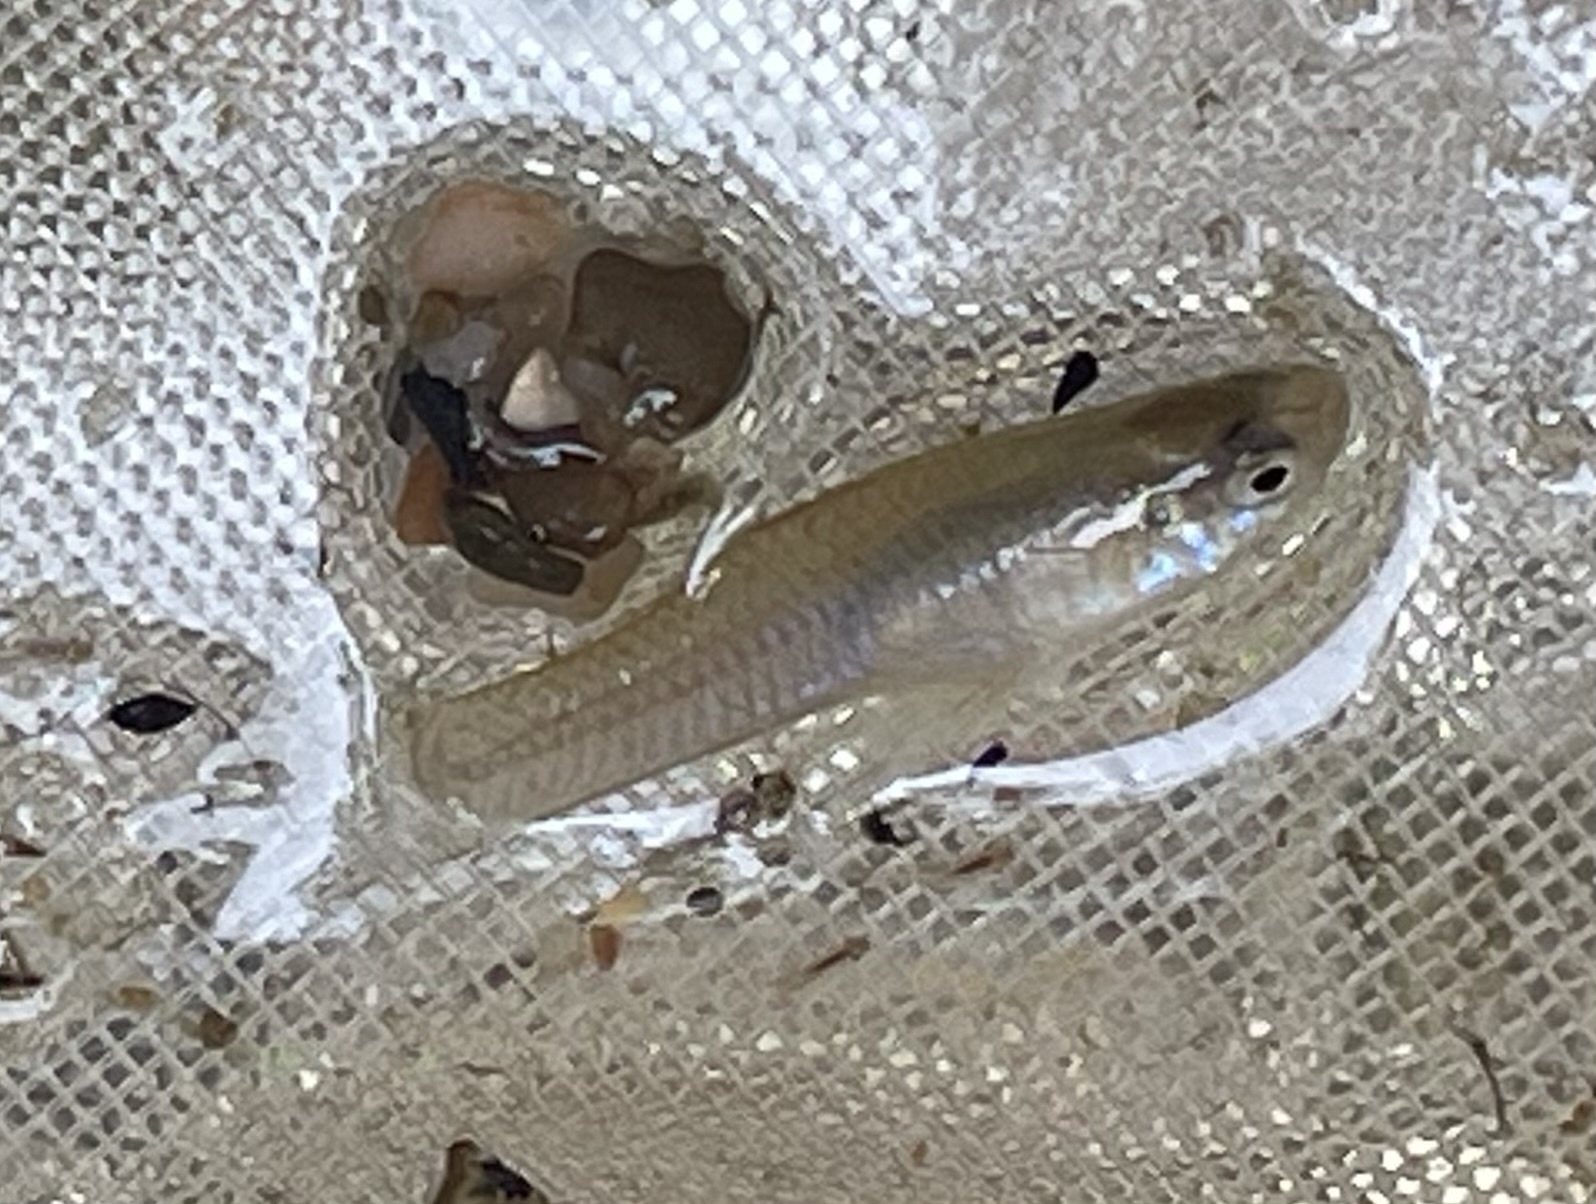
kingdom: Animalia
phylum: Chordata
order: Cyprinodontiformes
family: Poeciliidae
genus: Gambusia
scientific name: Gambusia affinis
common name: Mosquitofish
